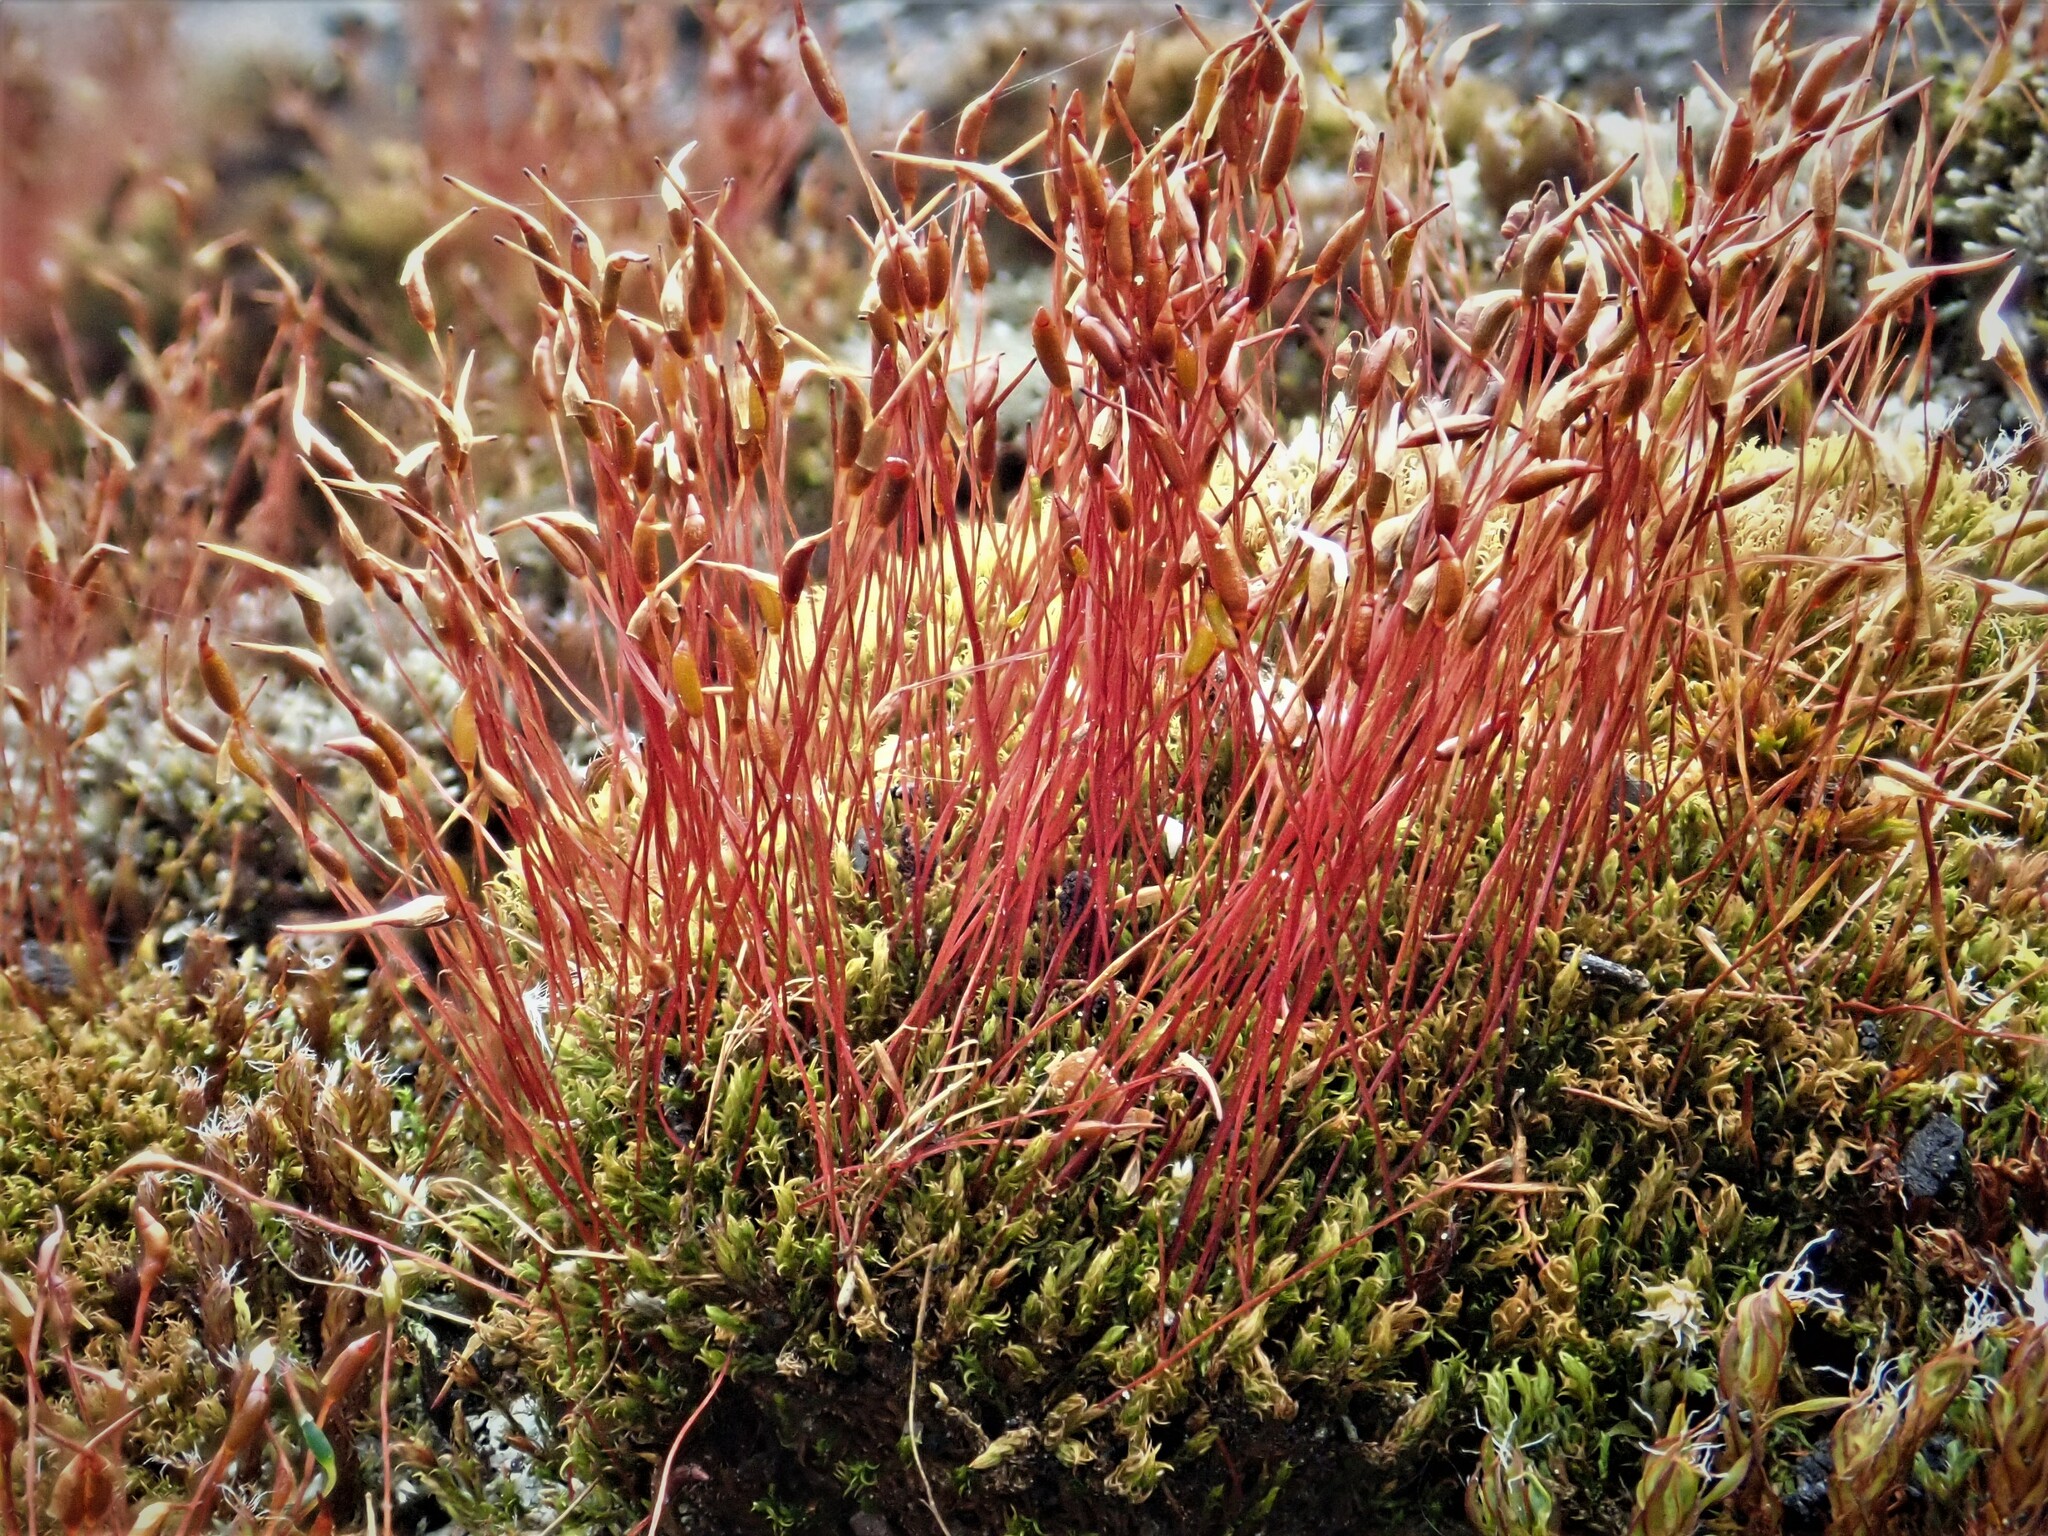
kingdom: Plantae
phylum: Bryophyta
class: Bryopsida
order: Dicranales
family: Ditrichaceae
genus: Ceratodon
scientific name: Ceratodon purpureus
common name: Redshank
